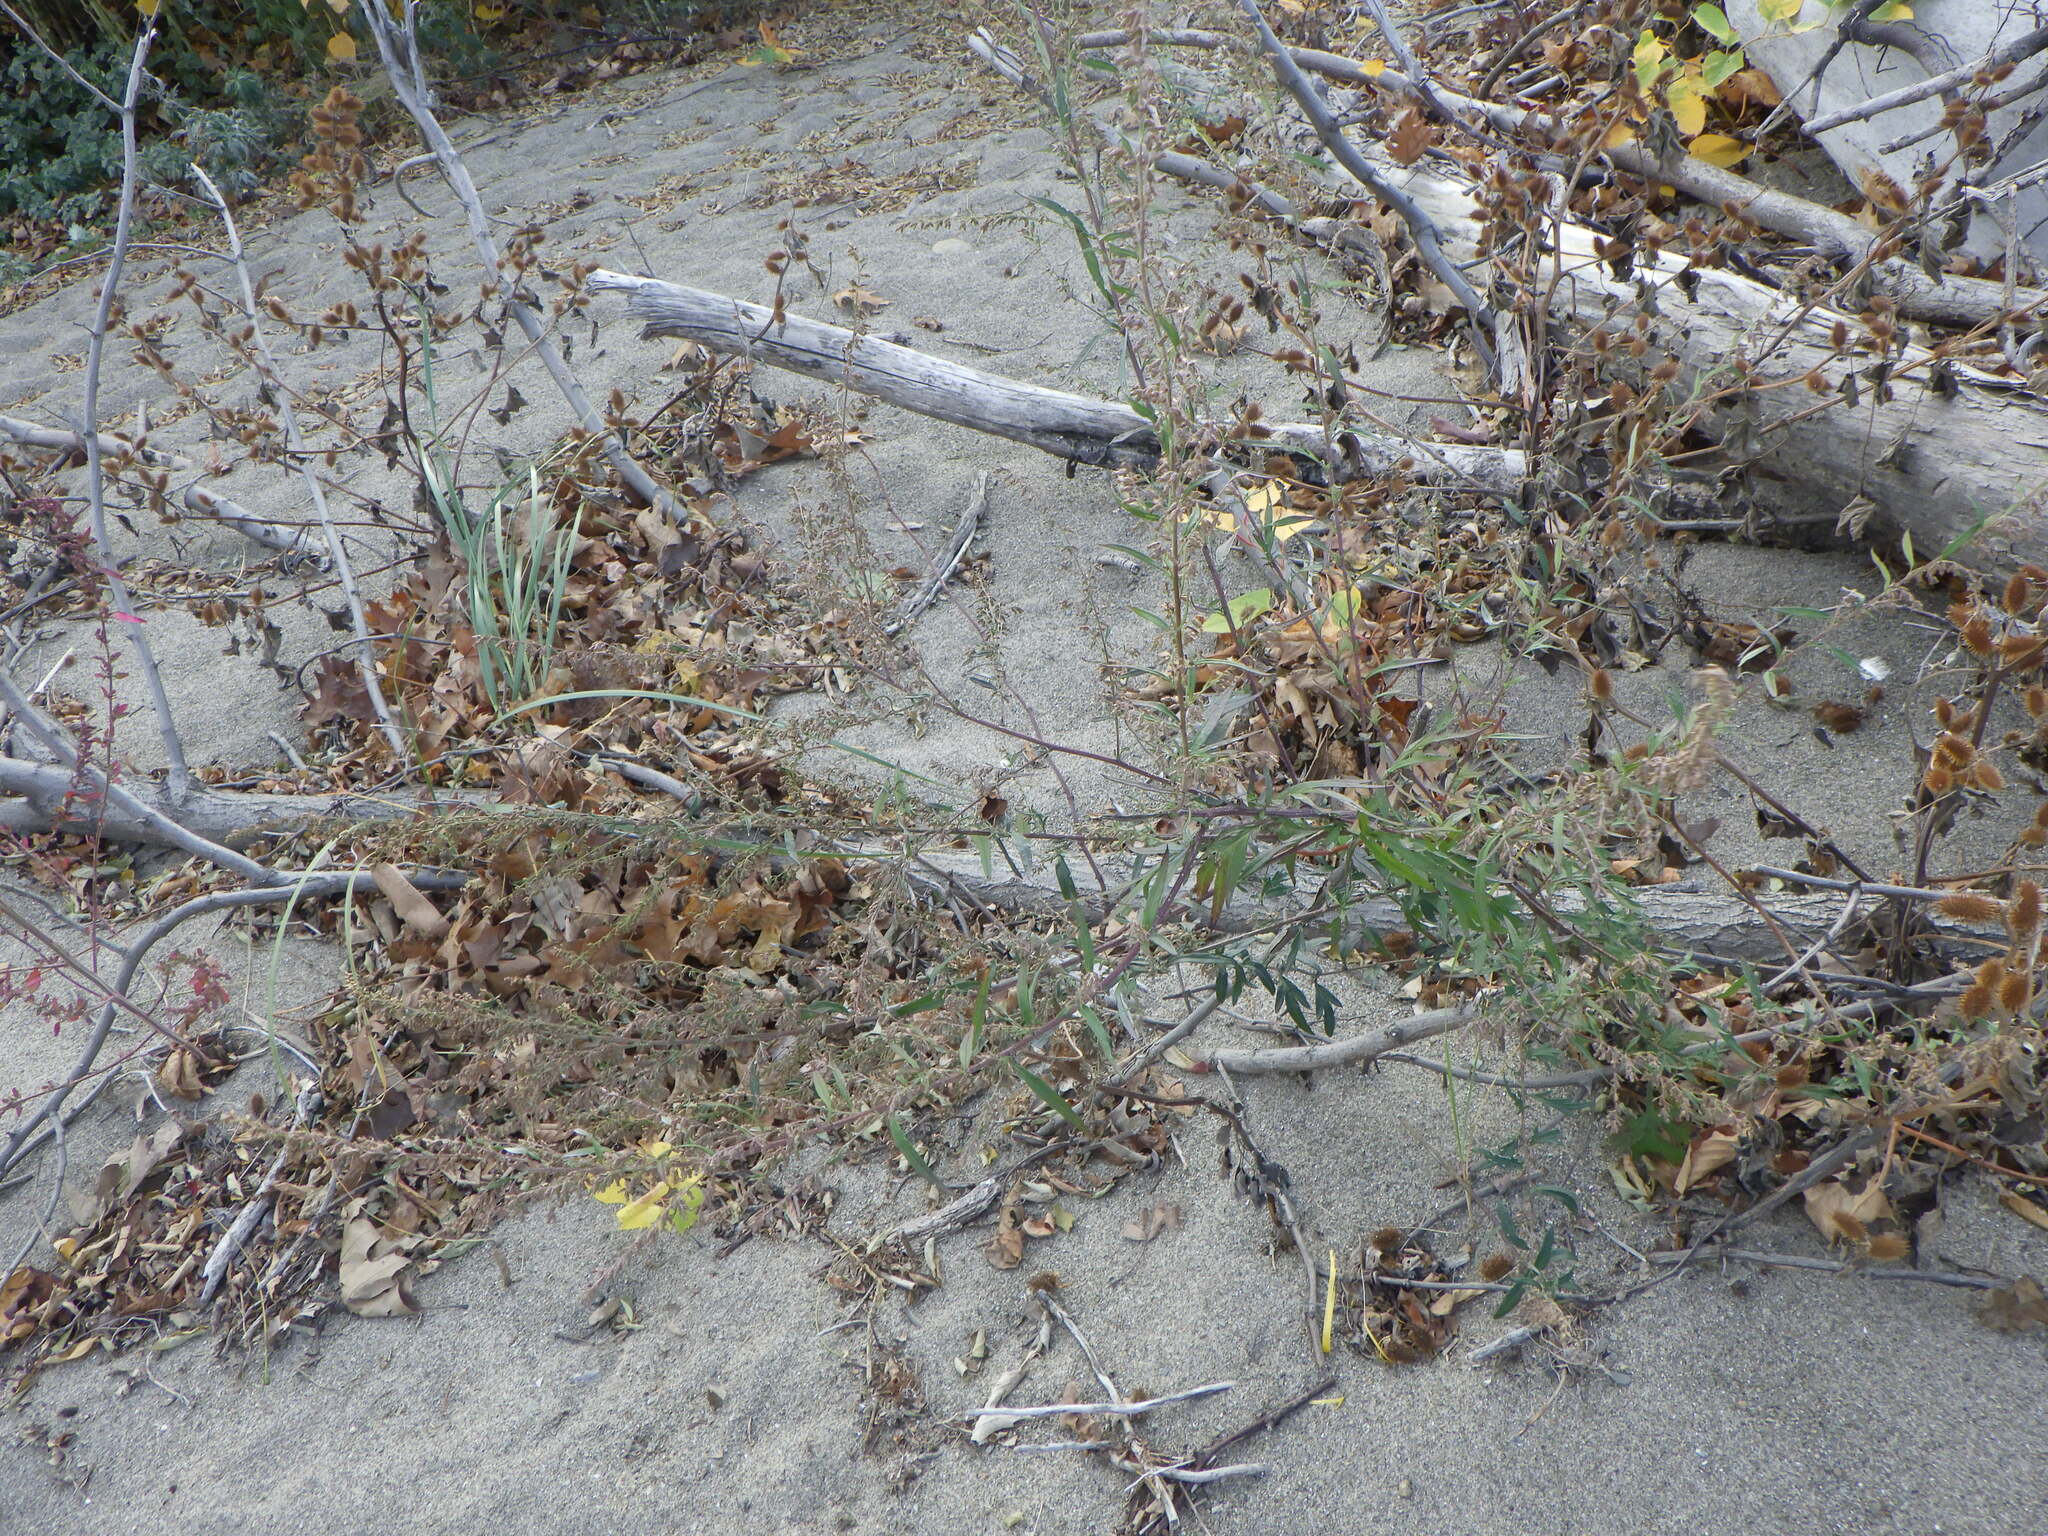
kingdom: Plantae
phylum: Tracheophyta
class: Magnoliopsida
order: Asterales
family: Asteraceae
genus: Artemisia
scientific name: Artemisia vulgaris
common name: Mugwort
